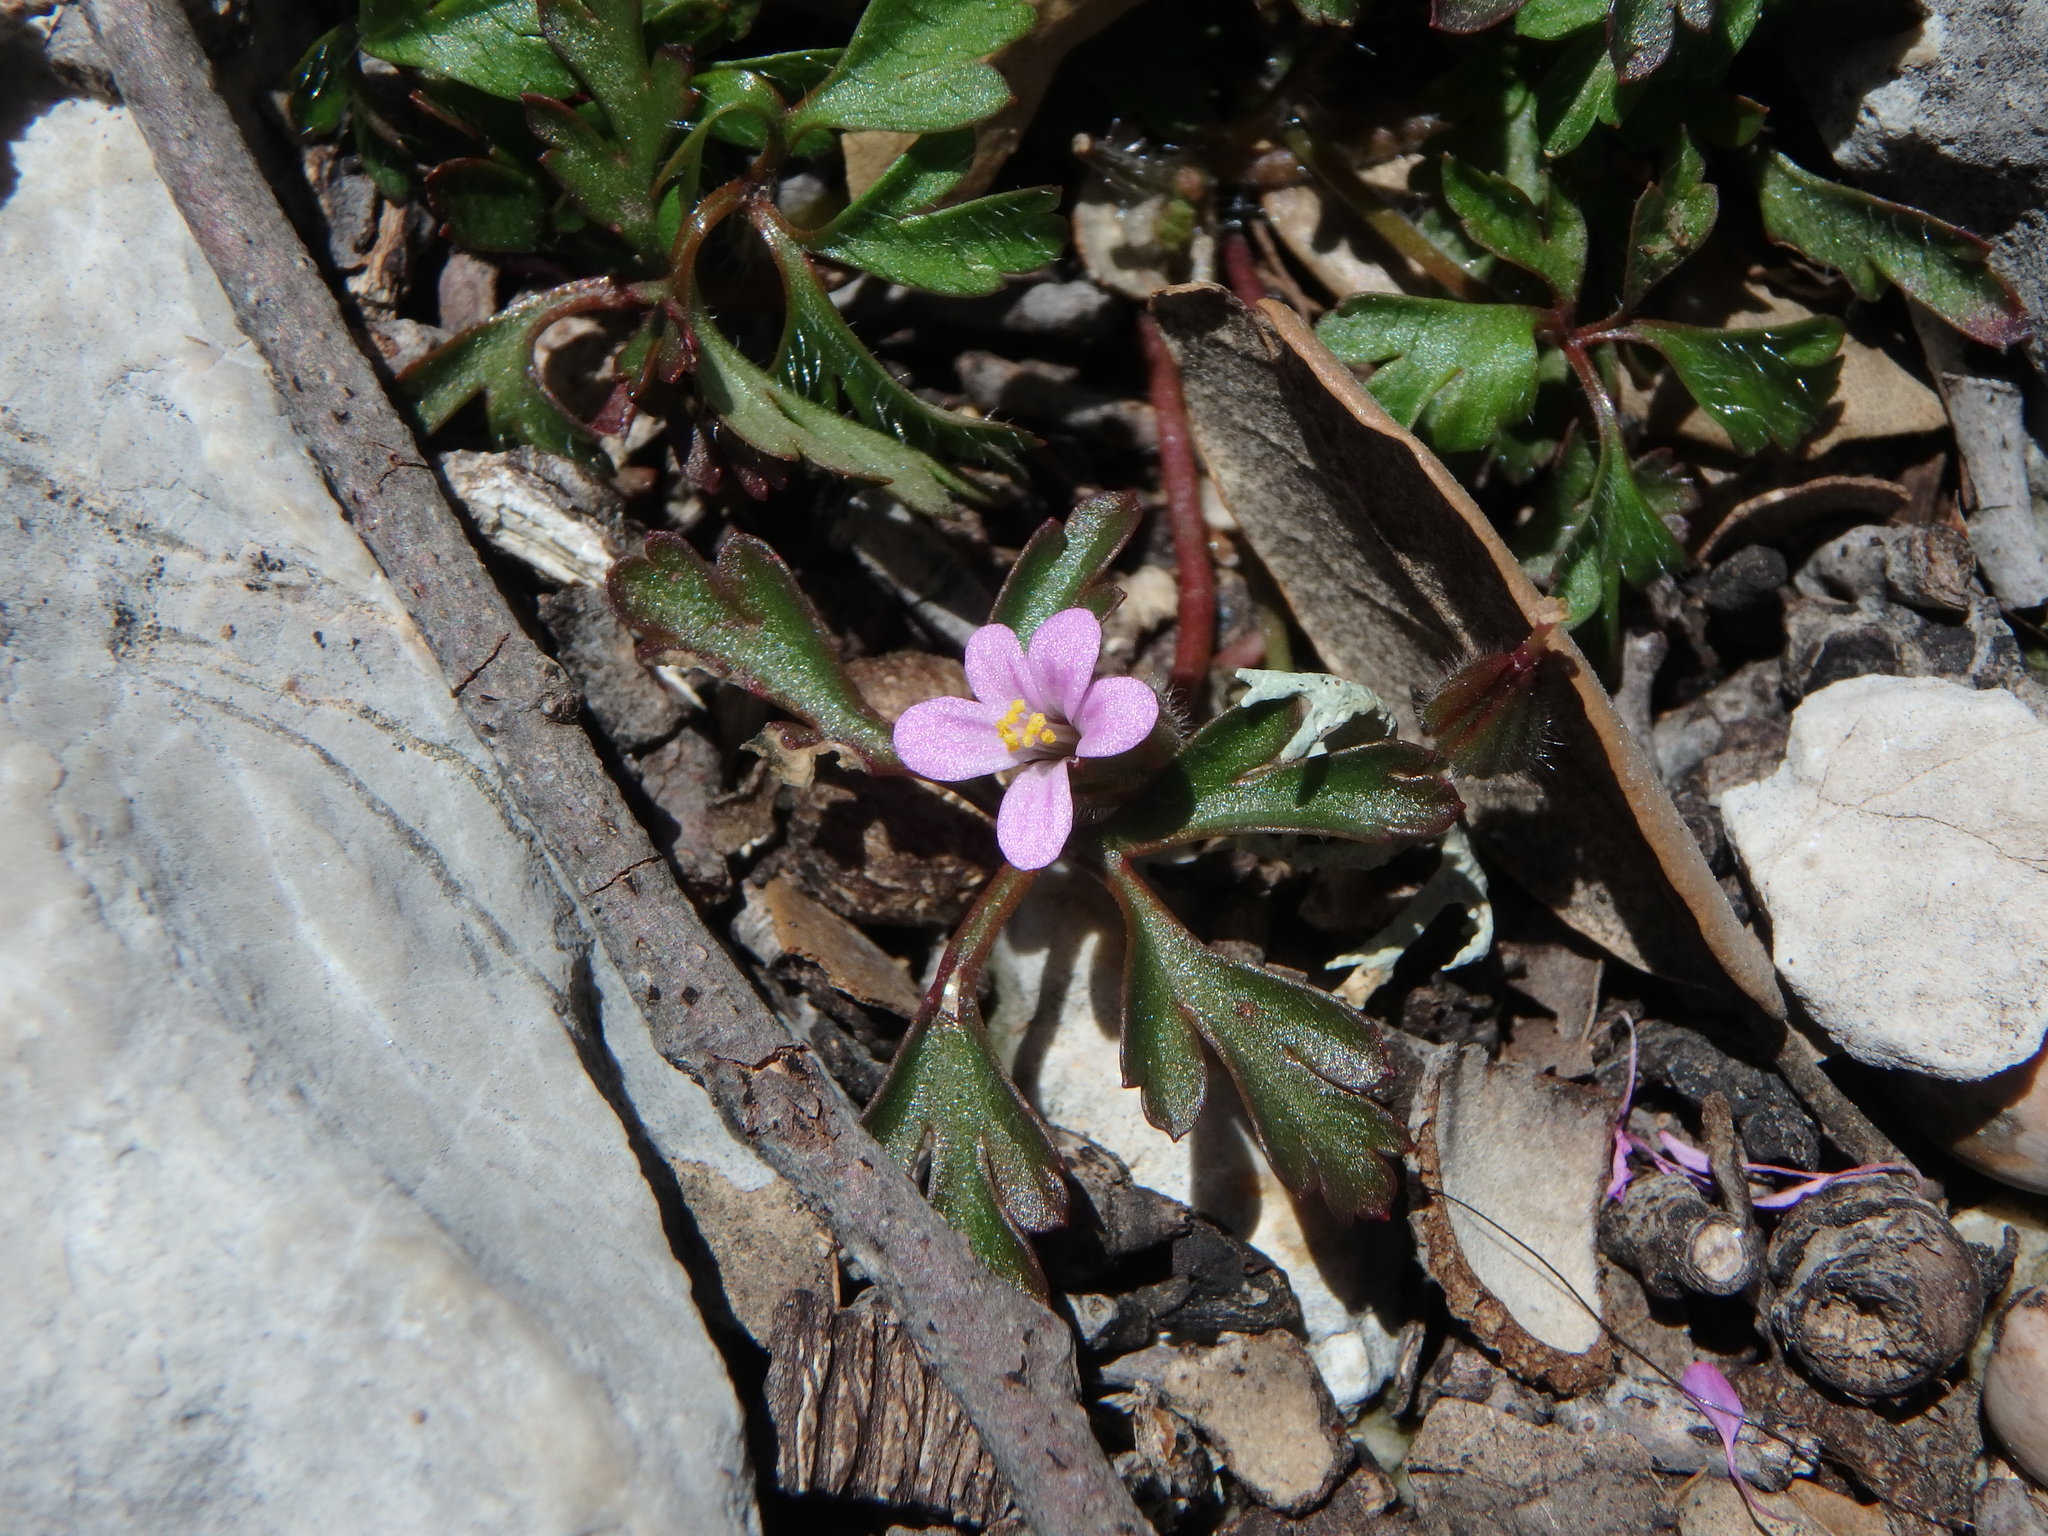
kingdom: Plantae
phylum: Tracheophyta
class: Magnoliopsida
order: Geraniales
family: Geraniaceae
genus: Geranium
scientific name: Geranium purpureum
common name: Little-robin
